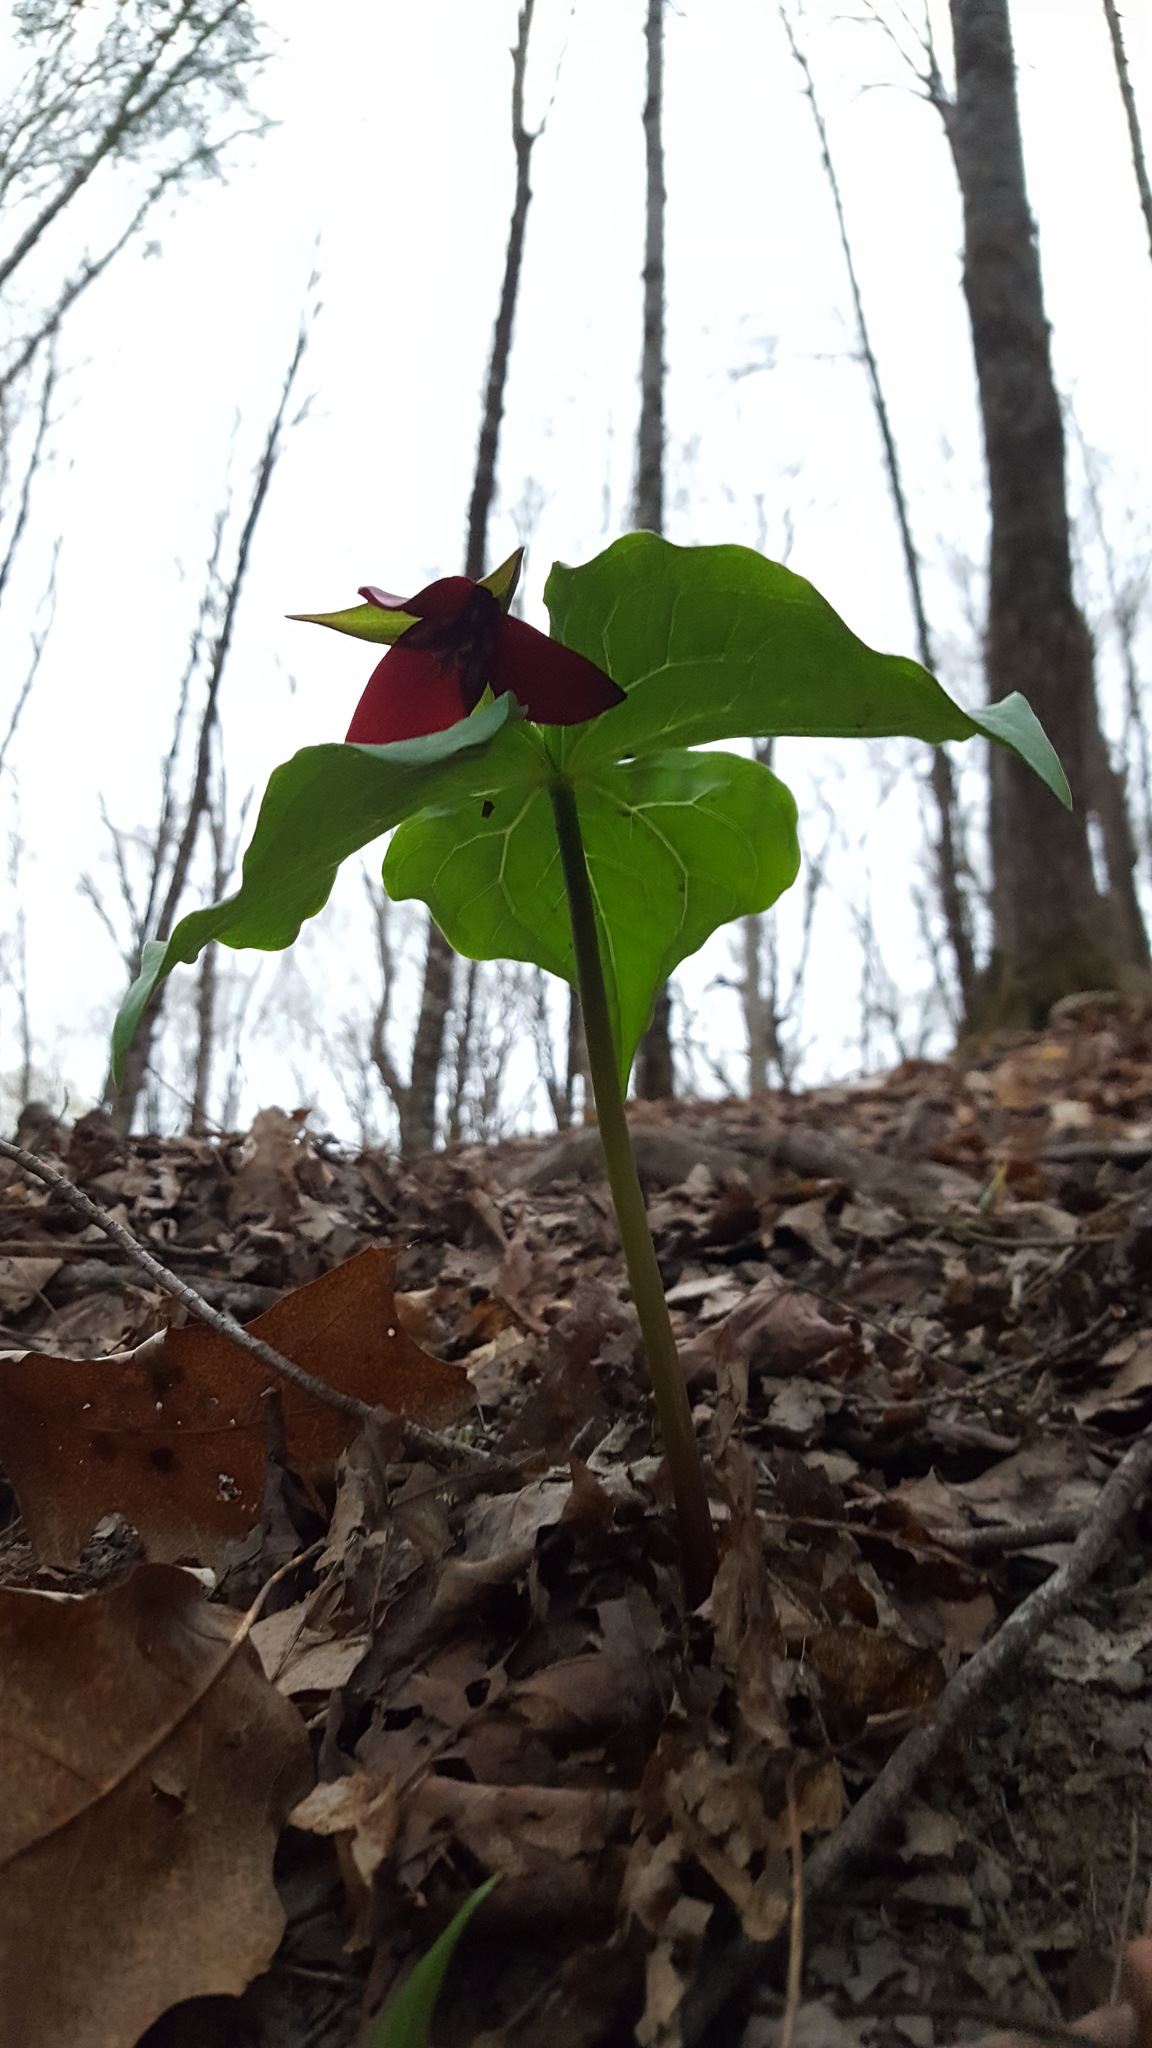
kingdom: Plantae
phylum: Tracheophyta
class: Liliopsida
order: Liliales
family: Melanthiaceae
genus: Trillium
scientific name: Trillium erectum
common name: Purple trillium
